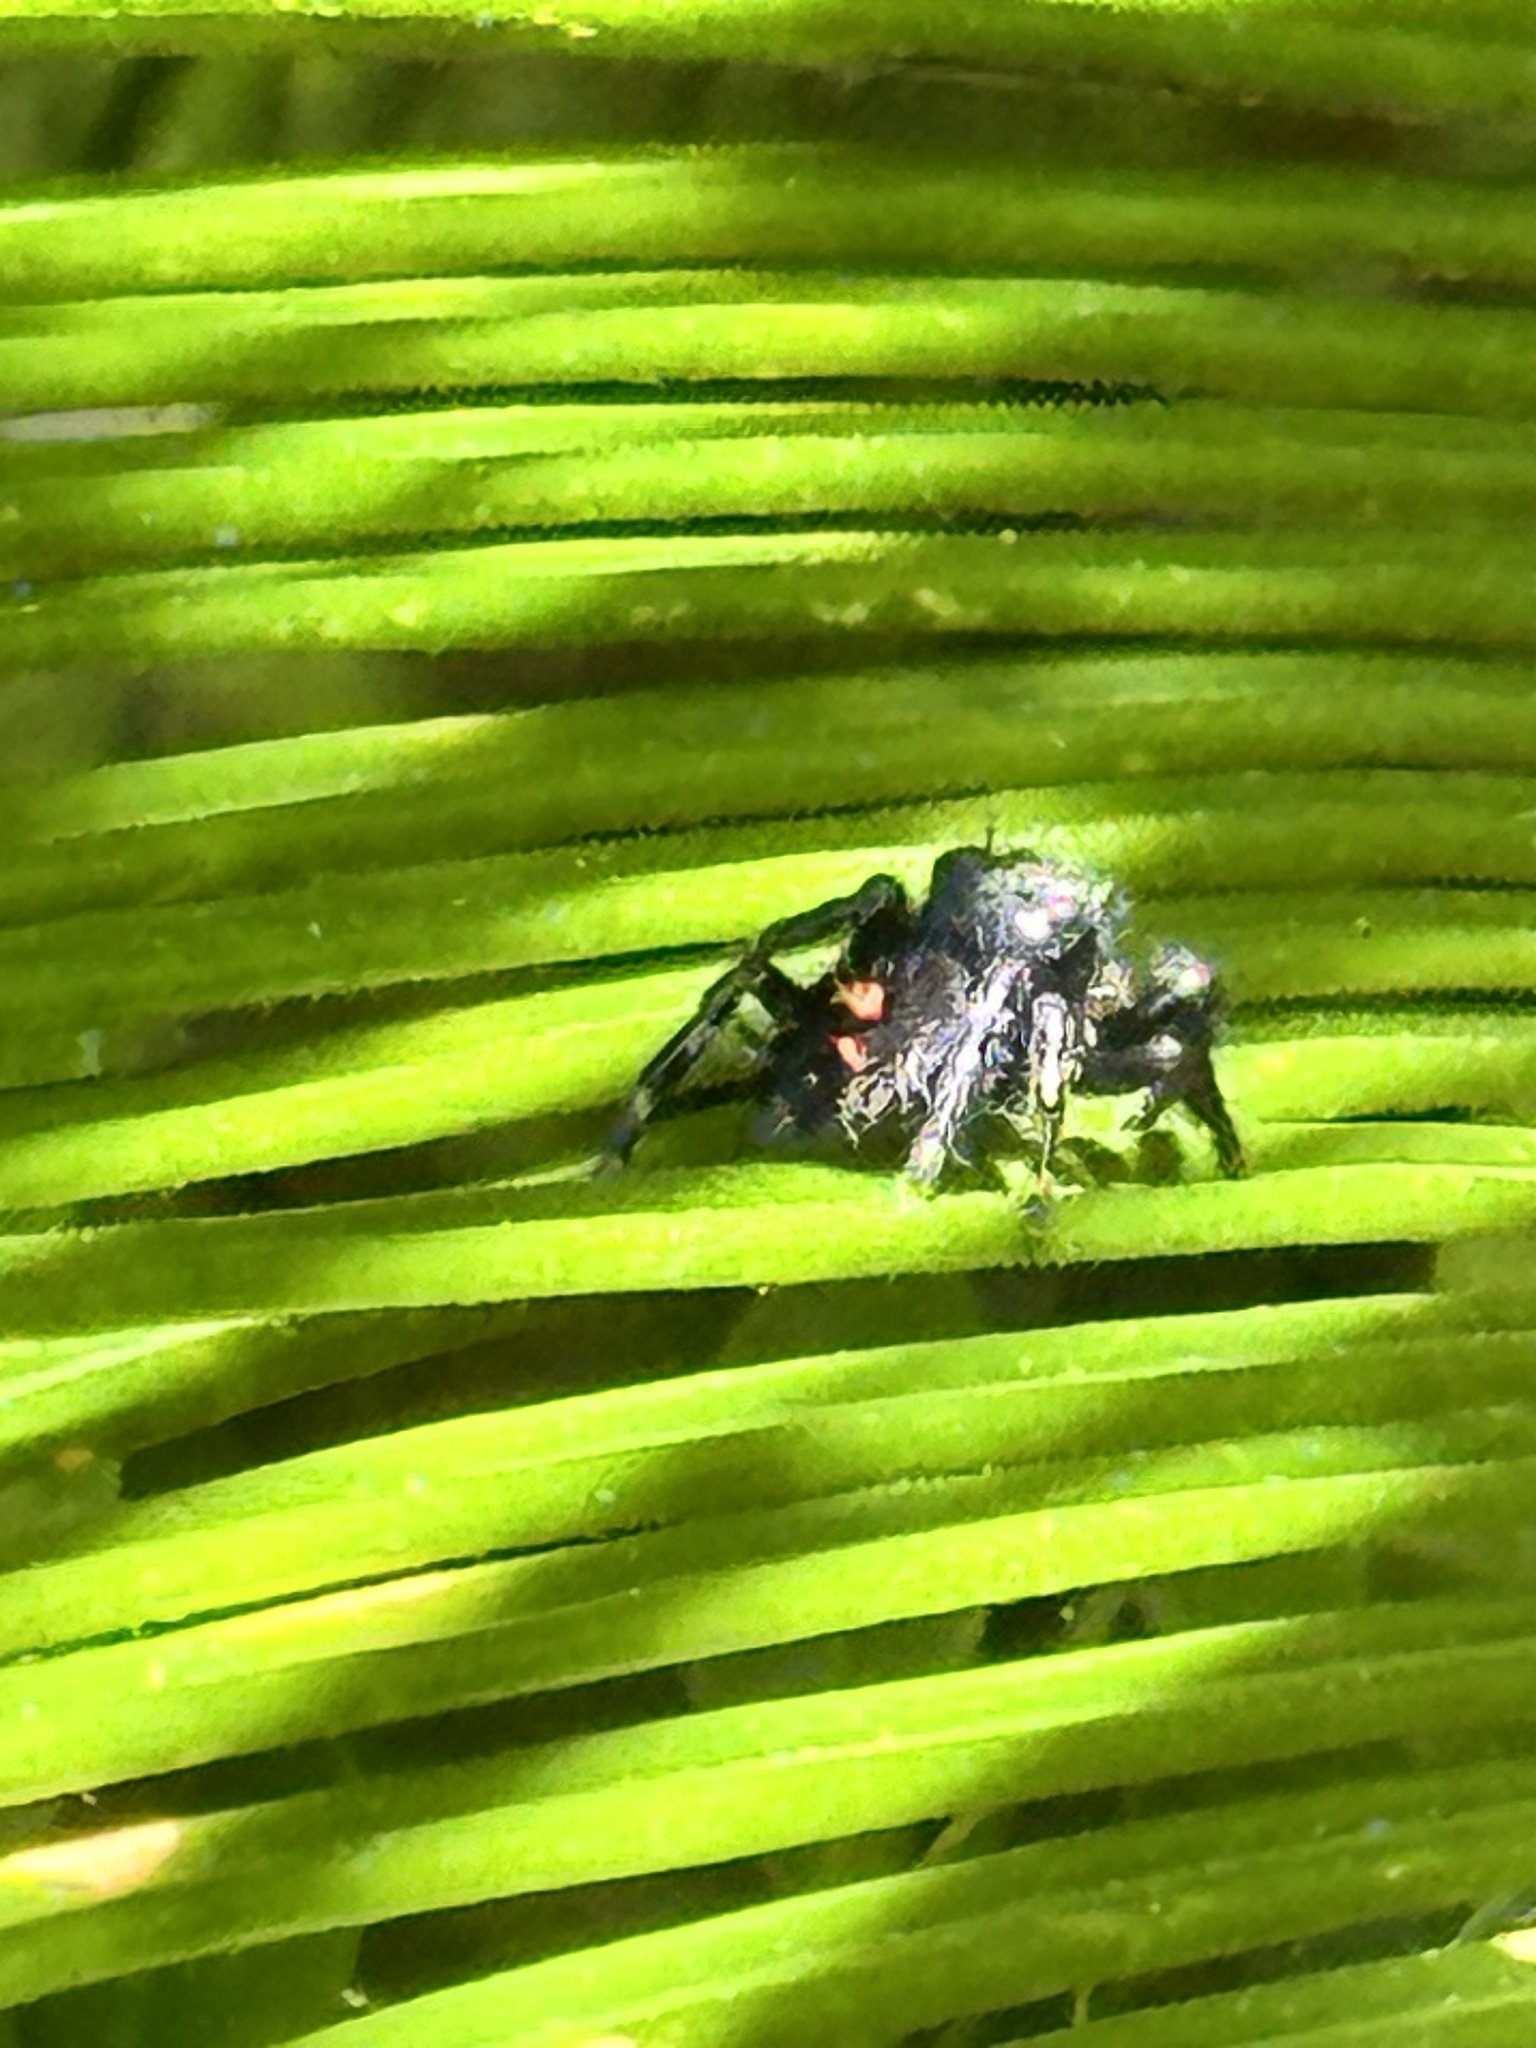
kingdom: Animalia
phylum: Arthropoda
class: Arachnida
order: Araneae
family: Salticidae
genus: Phidippus
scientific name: Phidippus audax
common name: Bold jumper
